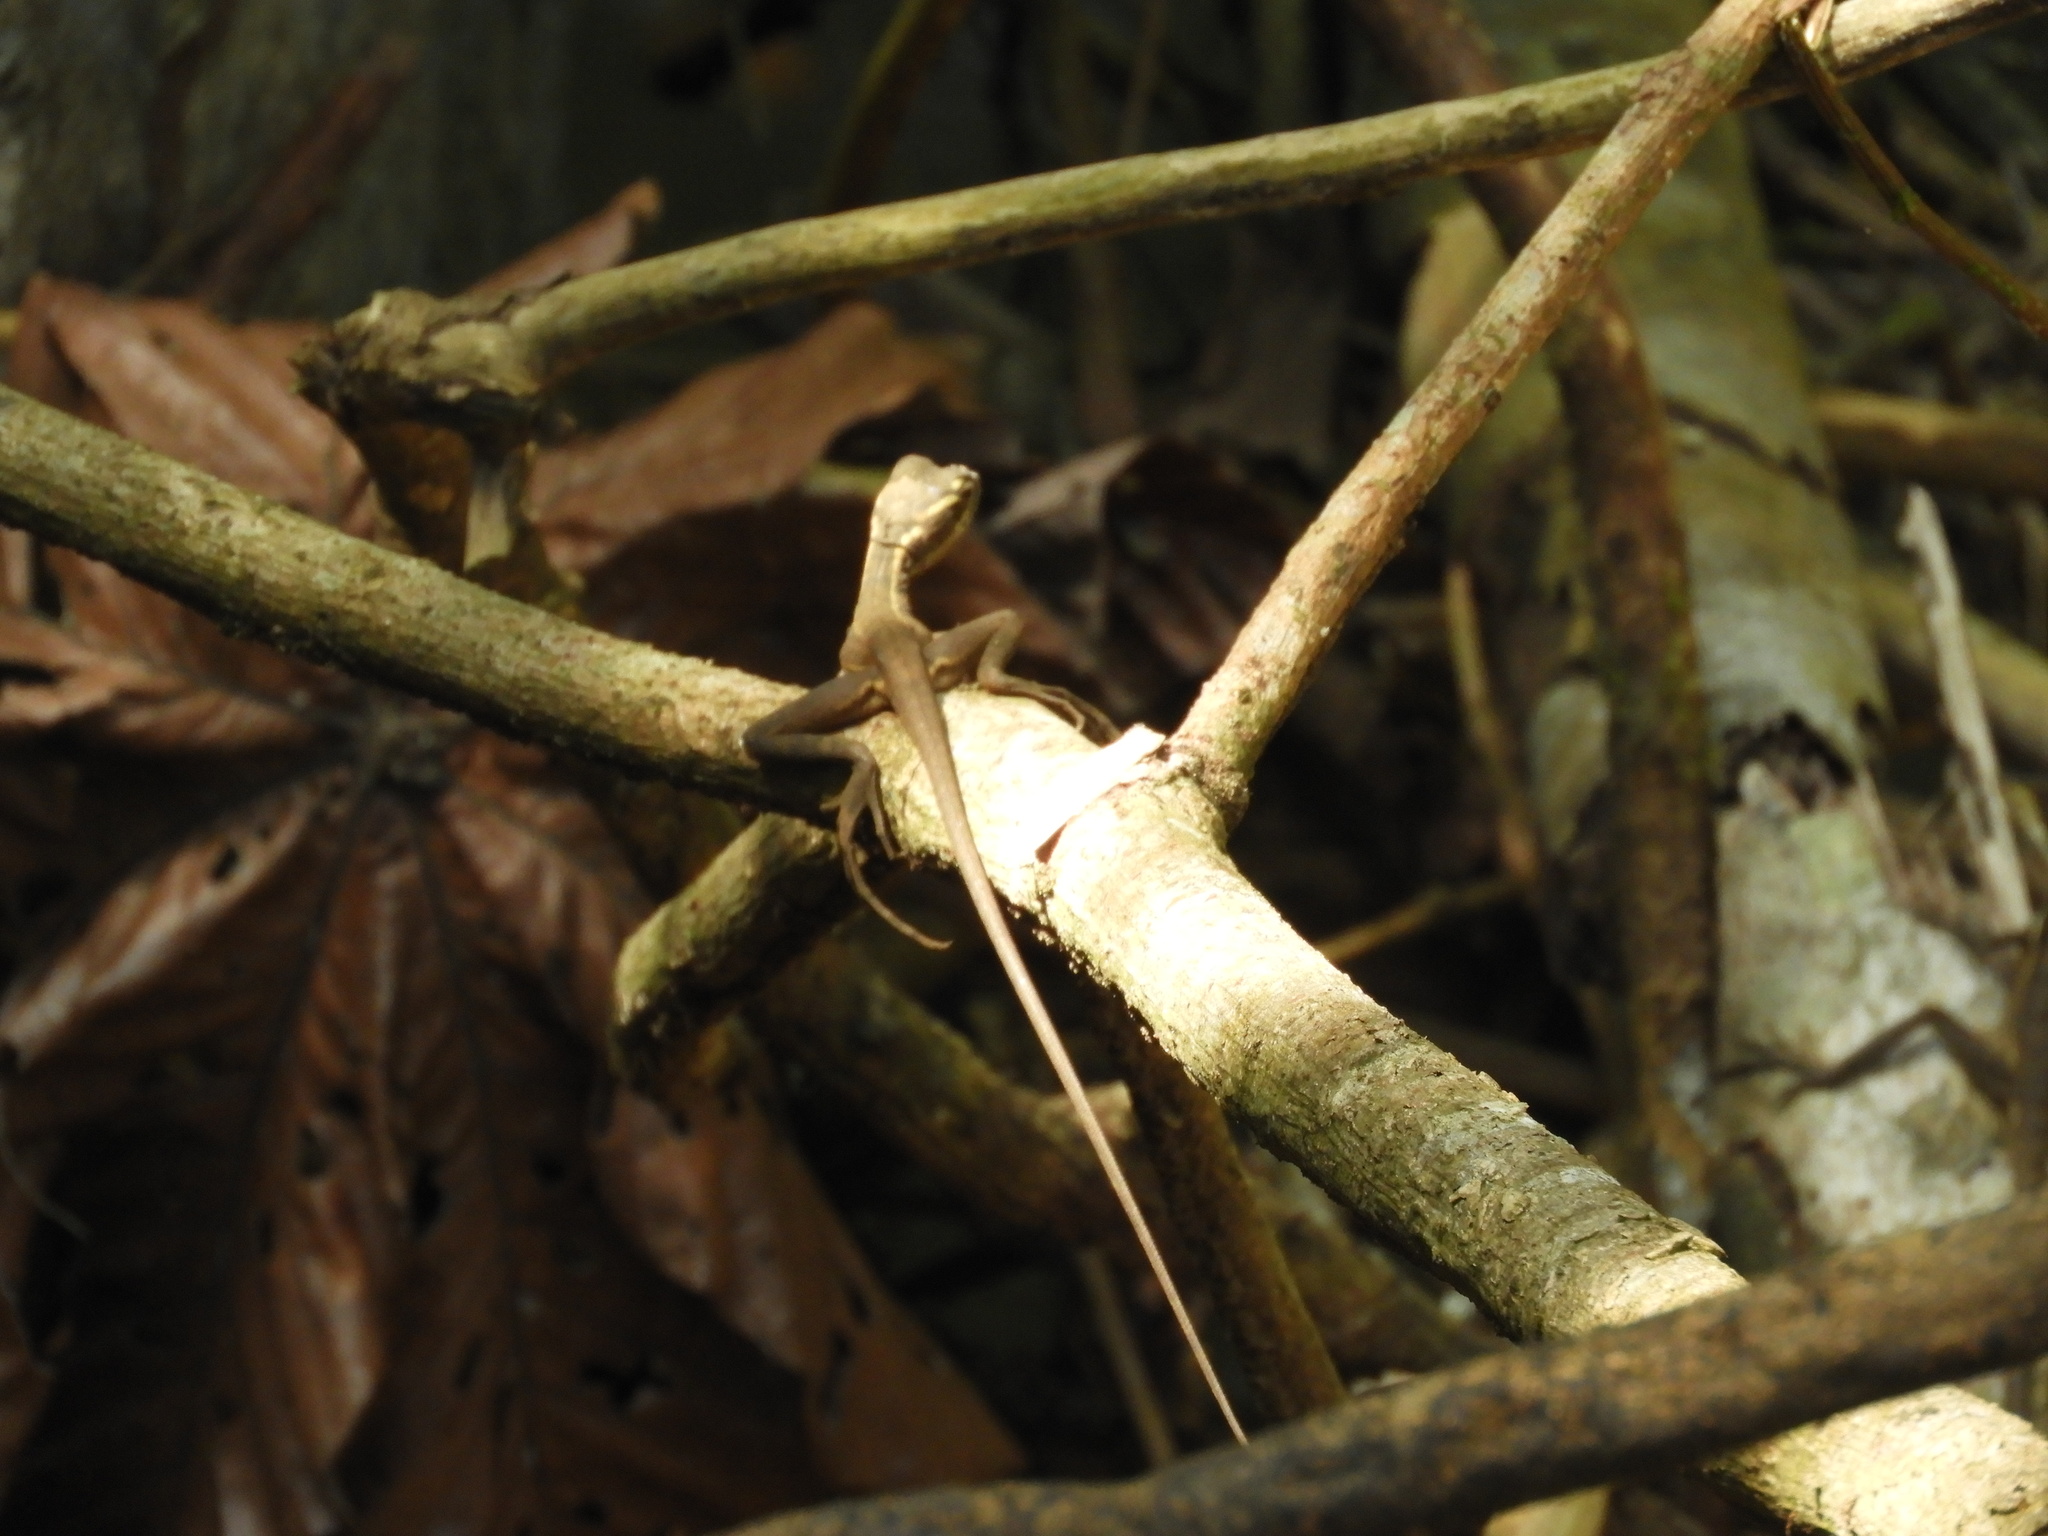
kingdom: Animalia
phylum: Chordata
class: Squamata
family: Corytophanidae
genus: Basiliscus
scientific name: Basiliscus basiliscus
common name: Common basilisk
